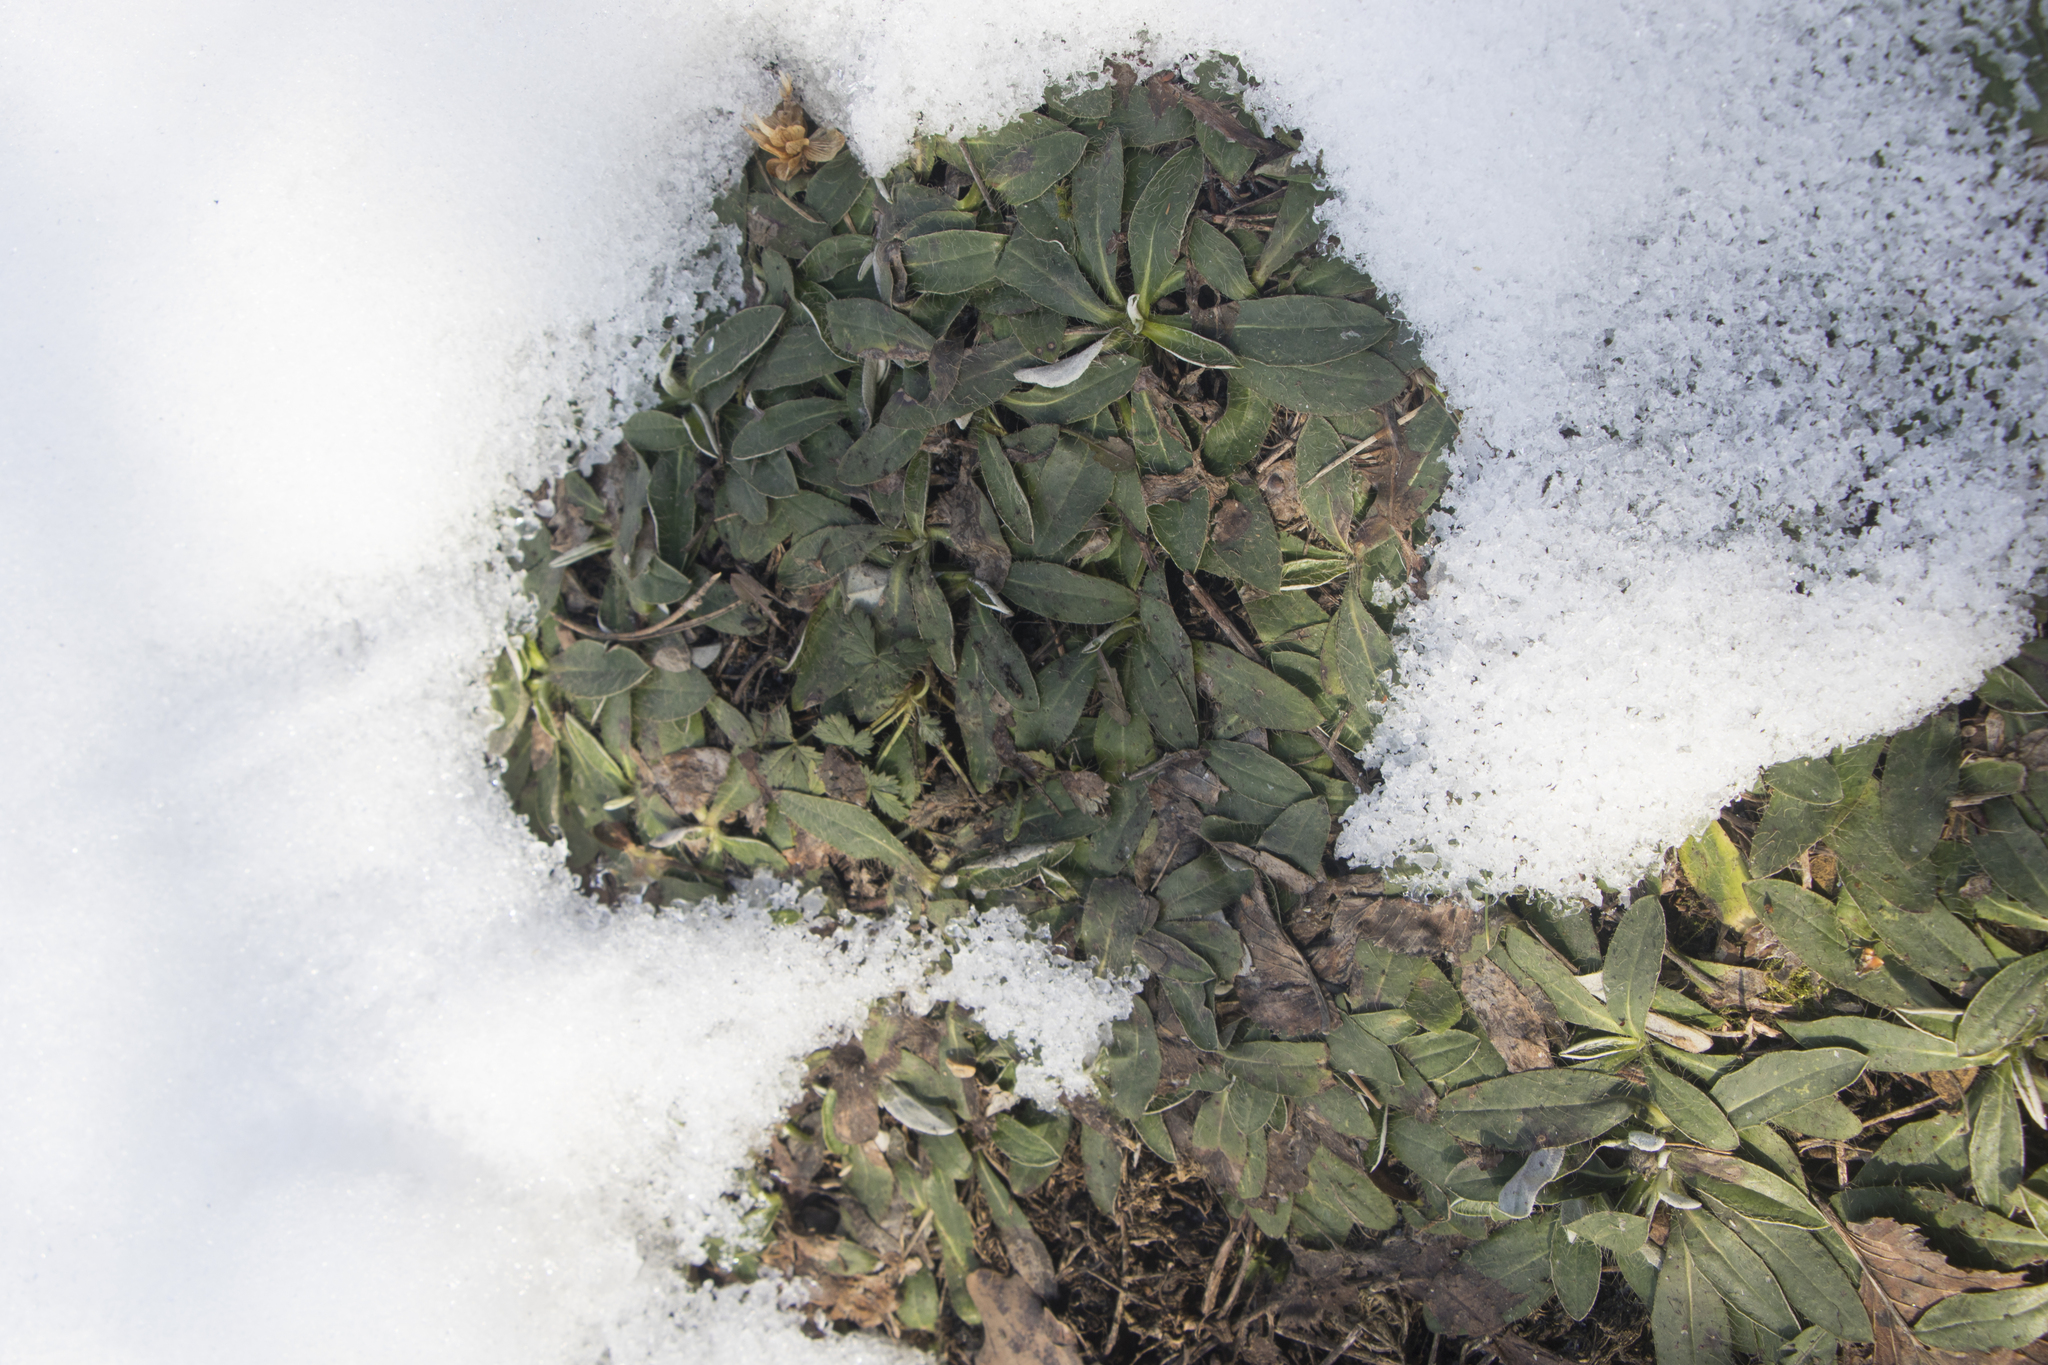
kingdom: Plantae
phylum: Tracheophyta
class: Magnoliopsida
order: Asterales
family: Asteraceae
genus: Pilosella
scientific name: Pilosella officinarum
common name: Mouse-ear hawkweed
